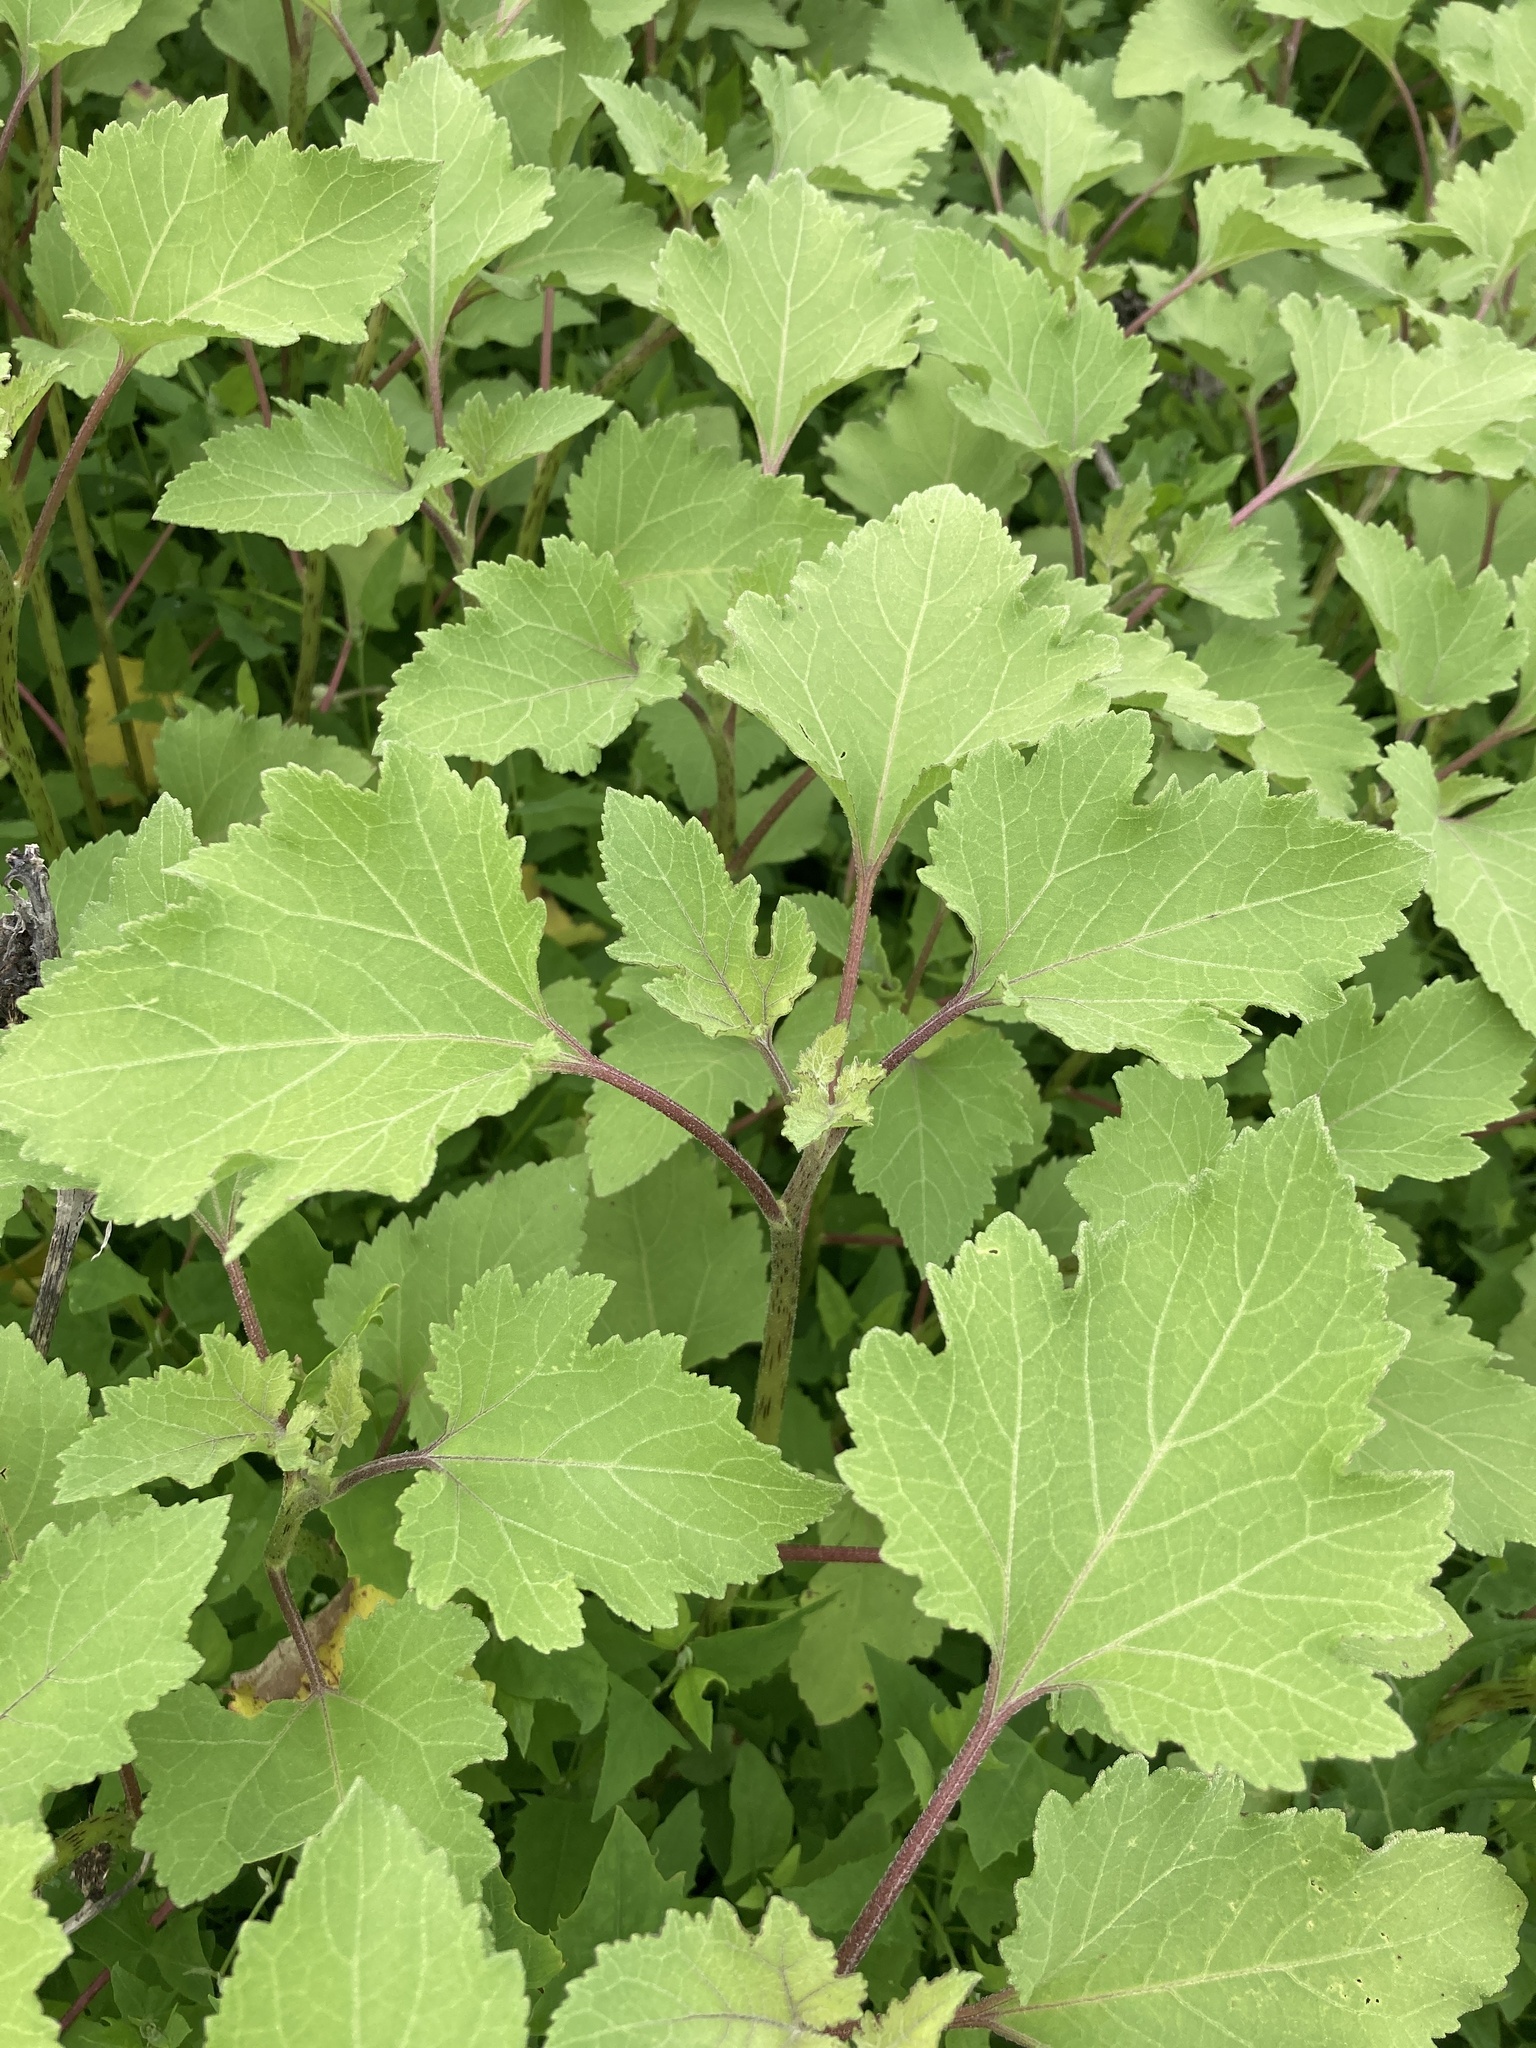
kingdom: Plantae
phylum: Tracheophyta
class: Magnoliopsida
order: Asterales
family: Asteraceae
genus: Xanthium
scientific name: Xanthium orientale
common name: Californian burr
